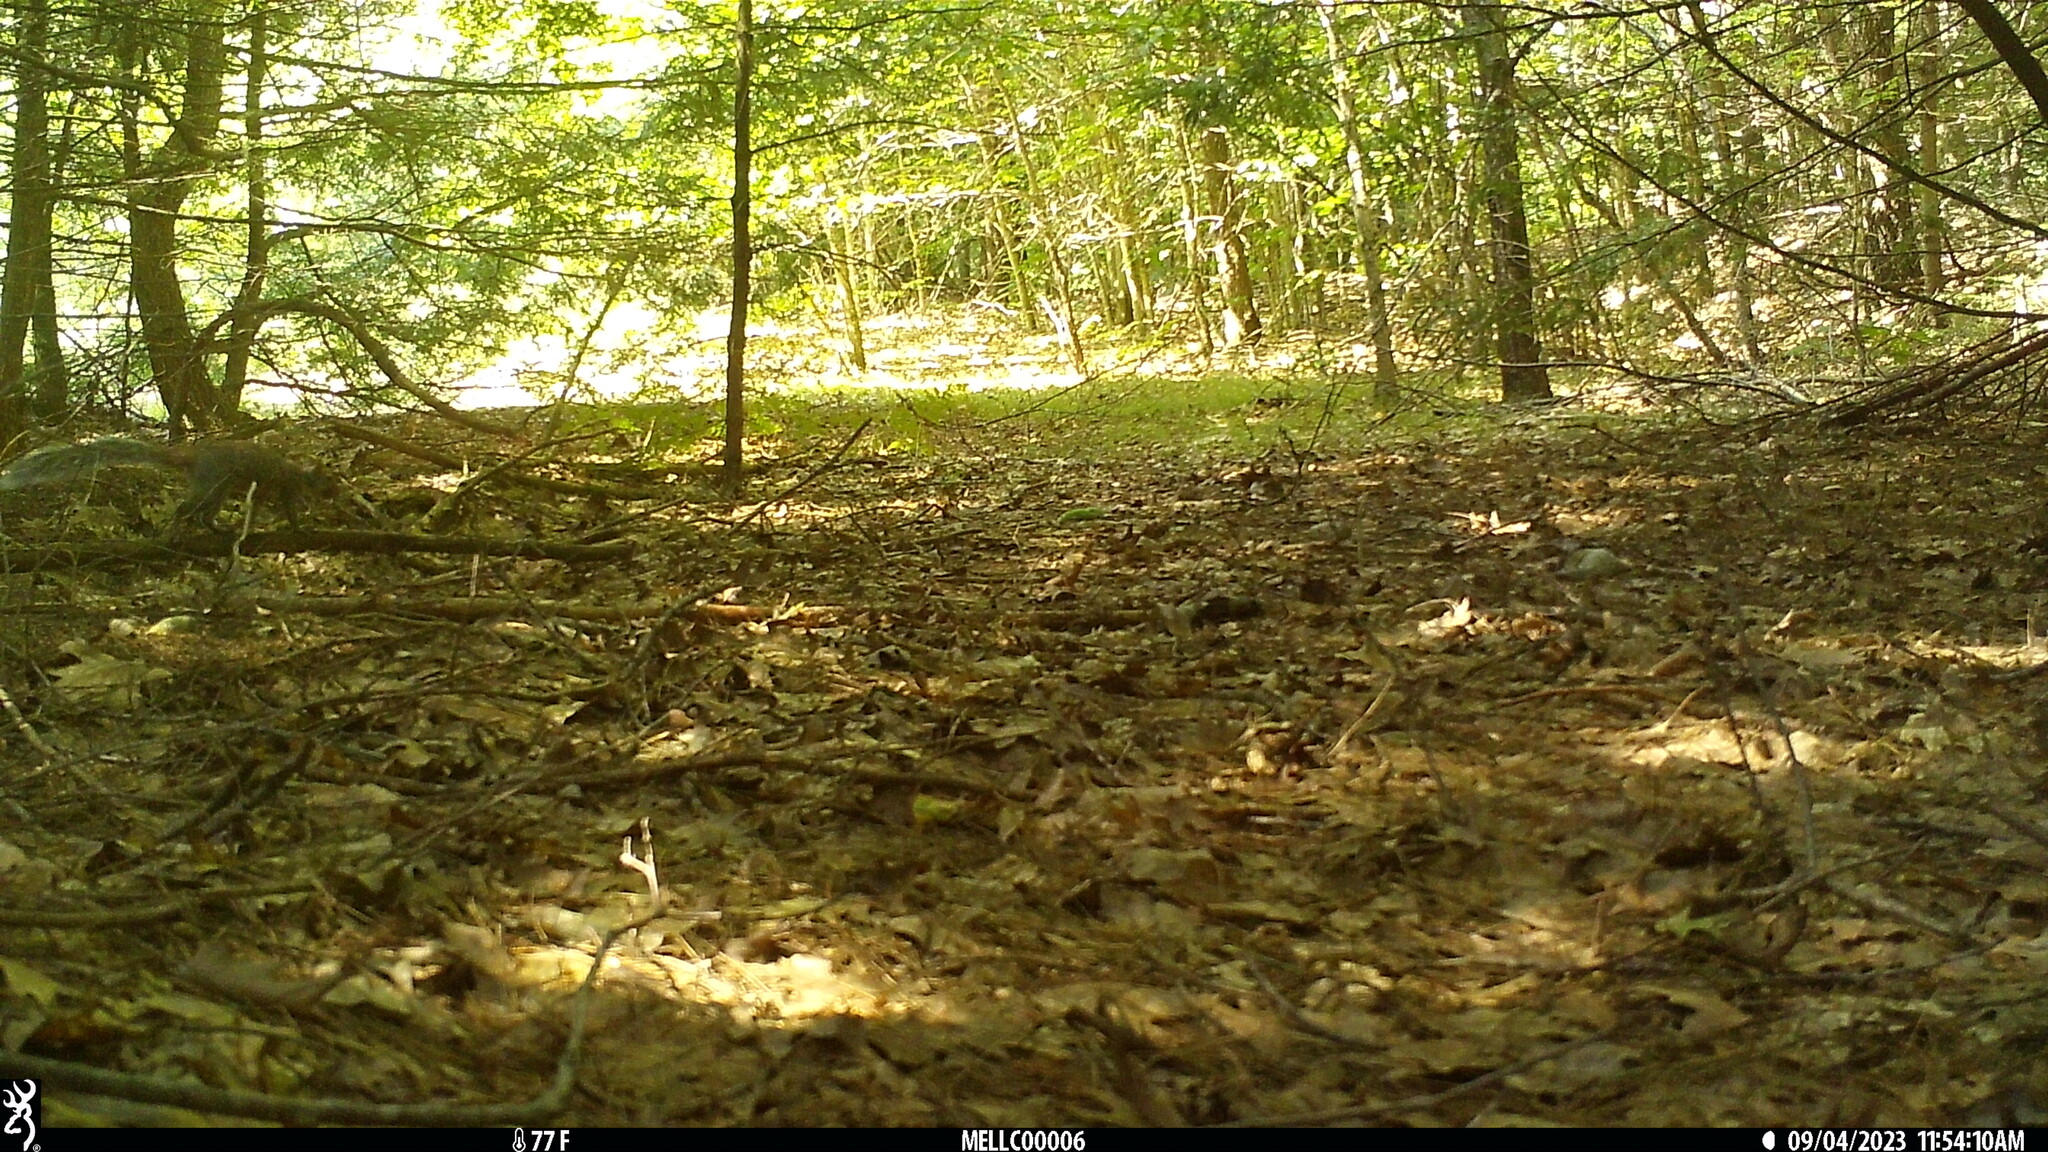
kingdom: Animalia
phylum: Chordata
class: Mammalia
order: Rodentia
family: Sciuridae
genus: Sciurus
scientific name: Sciurus carolinensis
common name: Eastern gray squirrel
